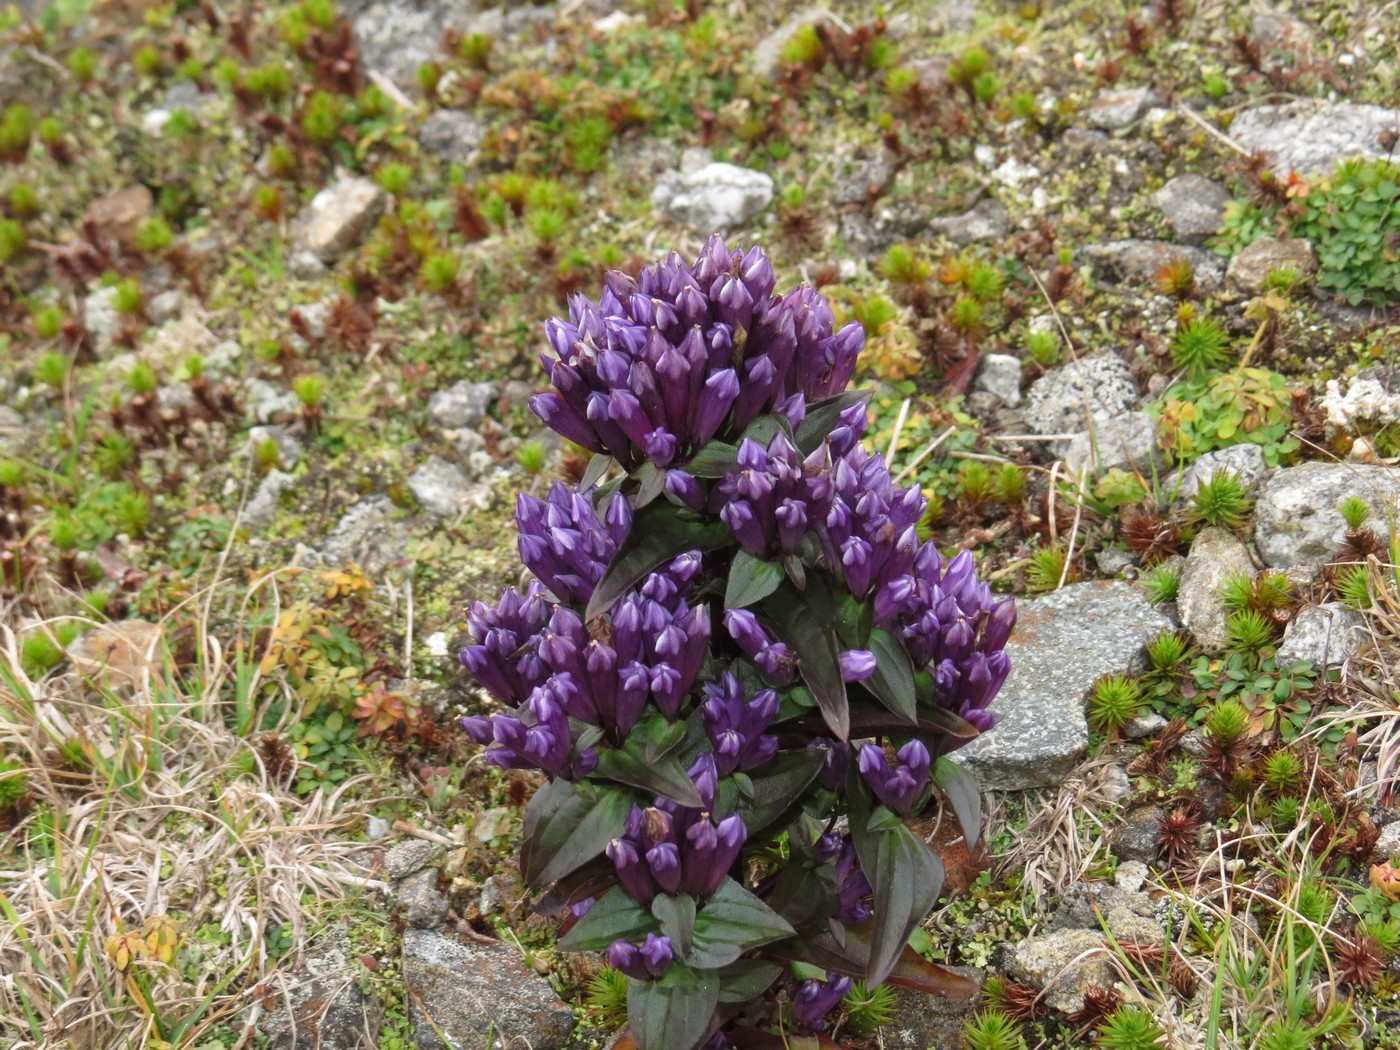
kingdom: Plantae
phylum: Tracheophyta
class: Magnoliopsida
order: Gentianales
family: Gentianaceae
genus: Gentianella
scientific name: Gentianella quinquefolia
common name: Agueweed
